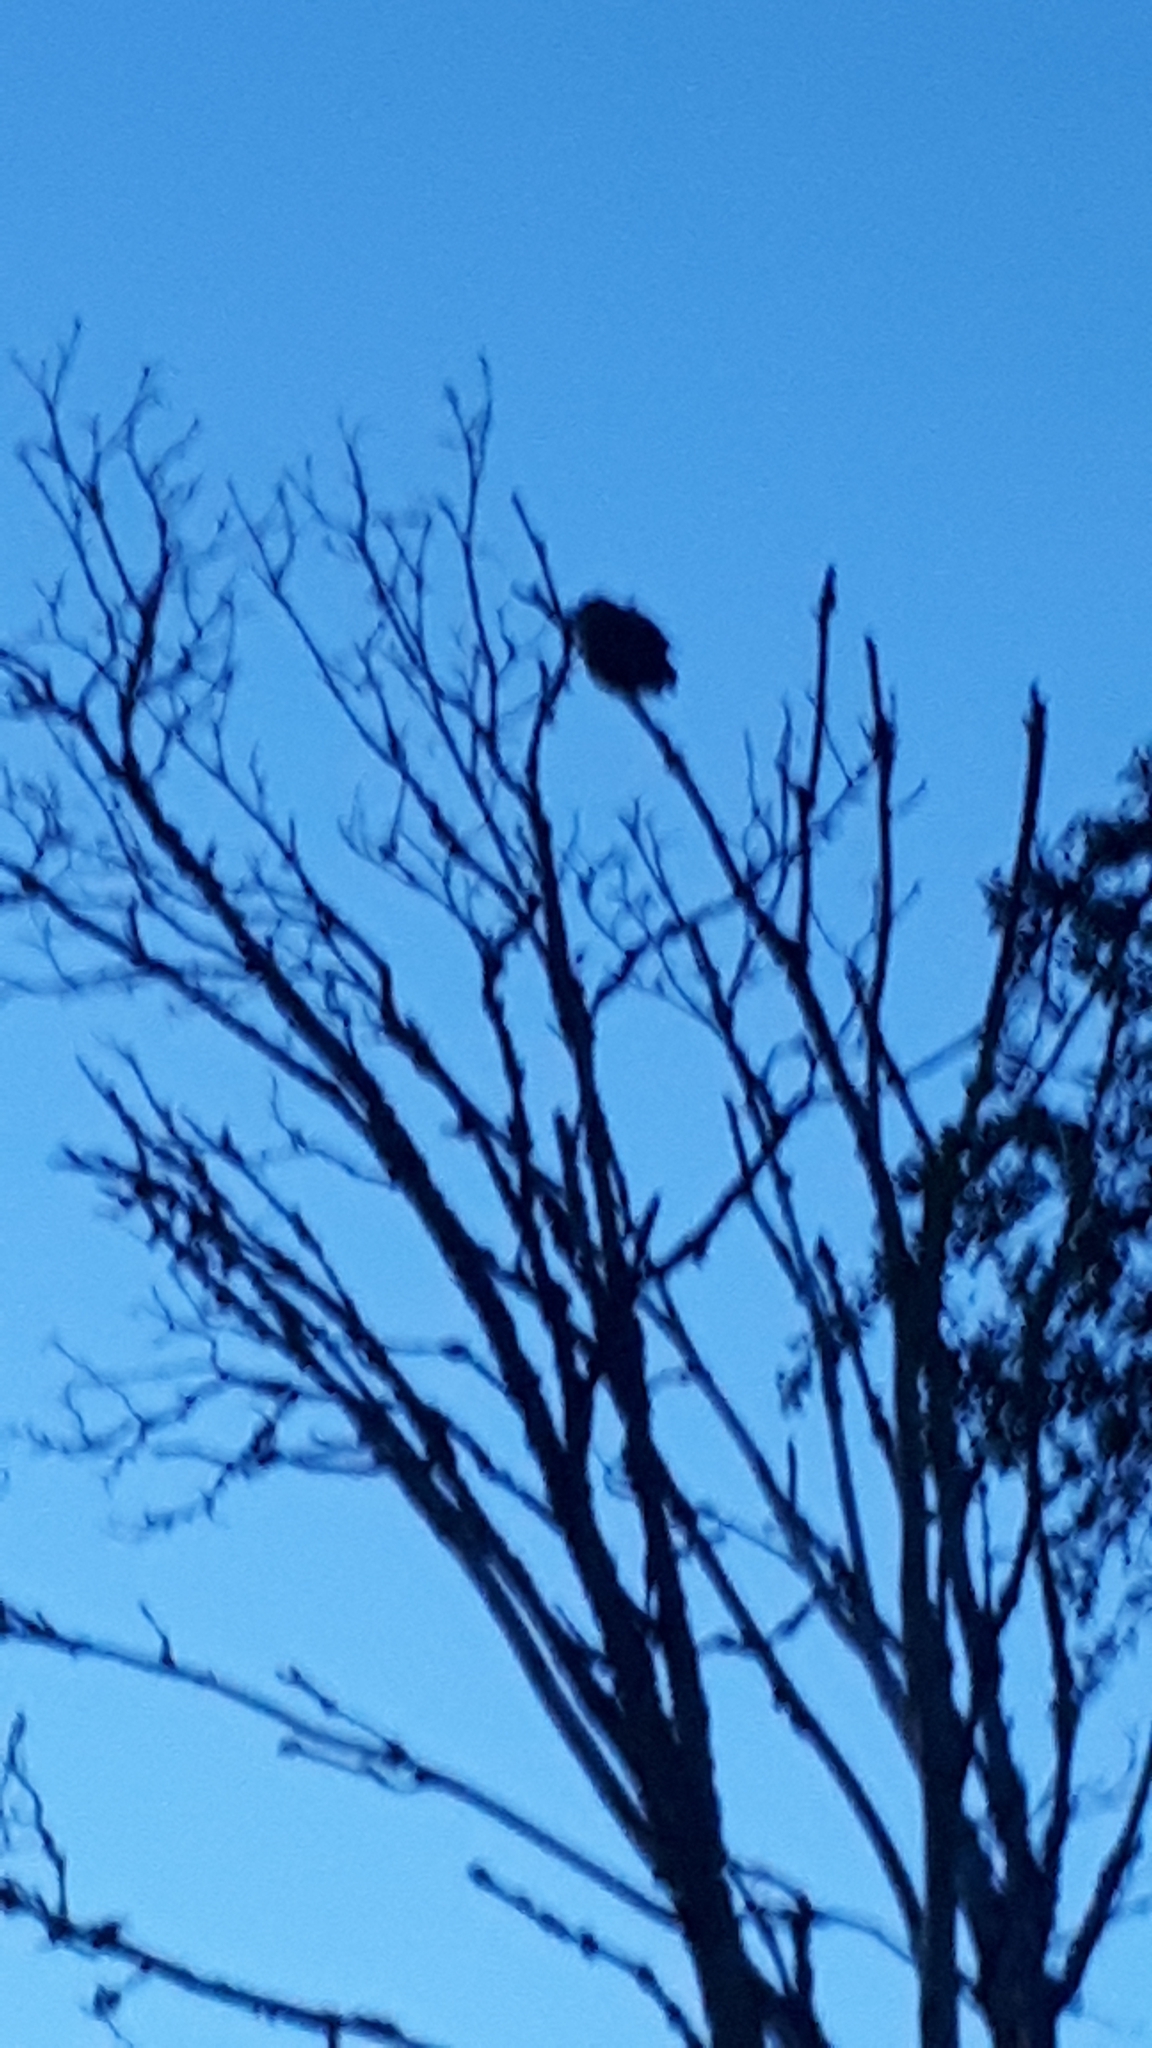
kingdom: Animalia
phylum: Chordata
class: Aves
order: Strigiformes
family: Strigidae
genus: Bubo
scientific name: Bubo virginianus
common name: Great horned owl
